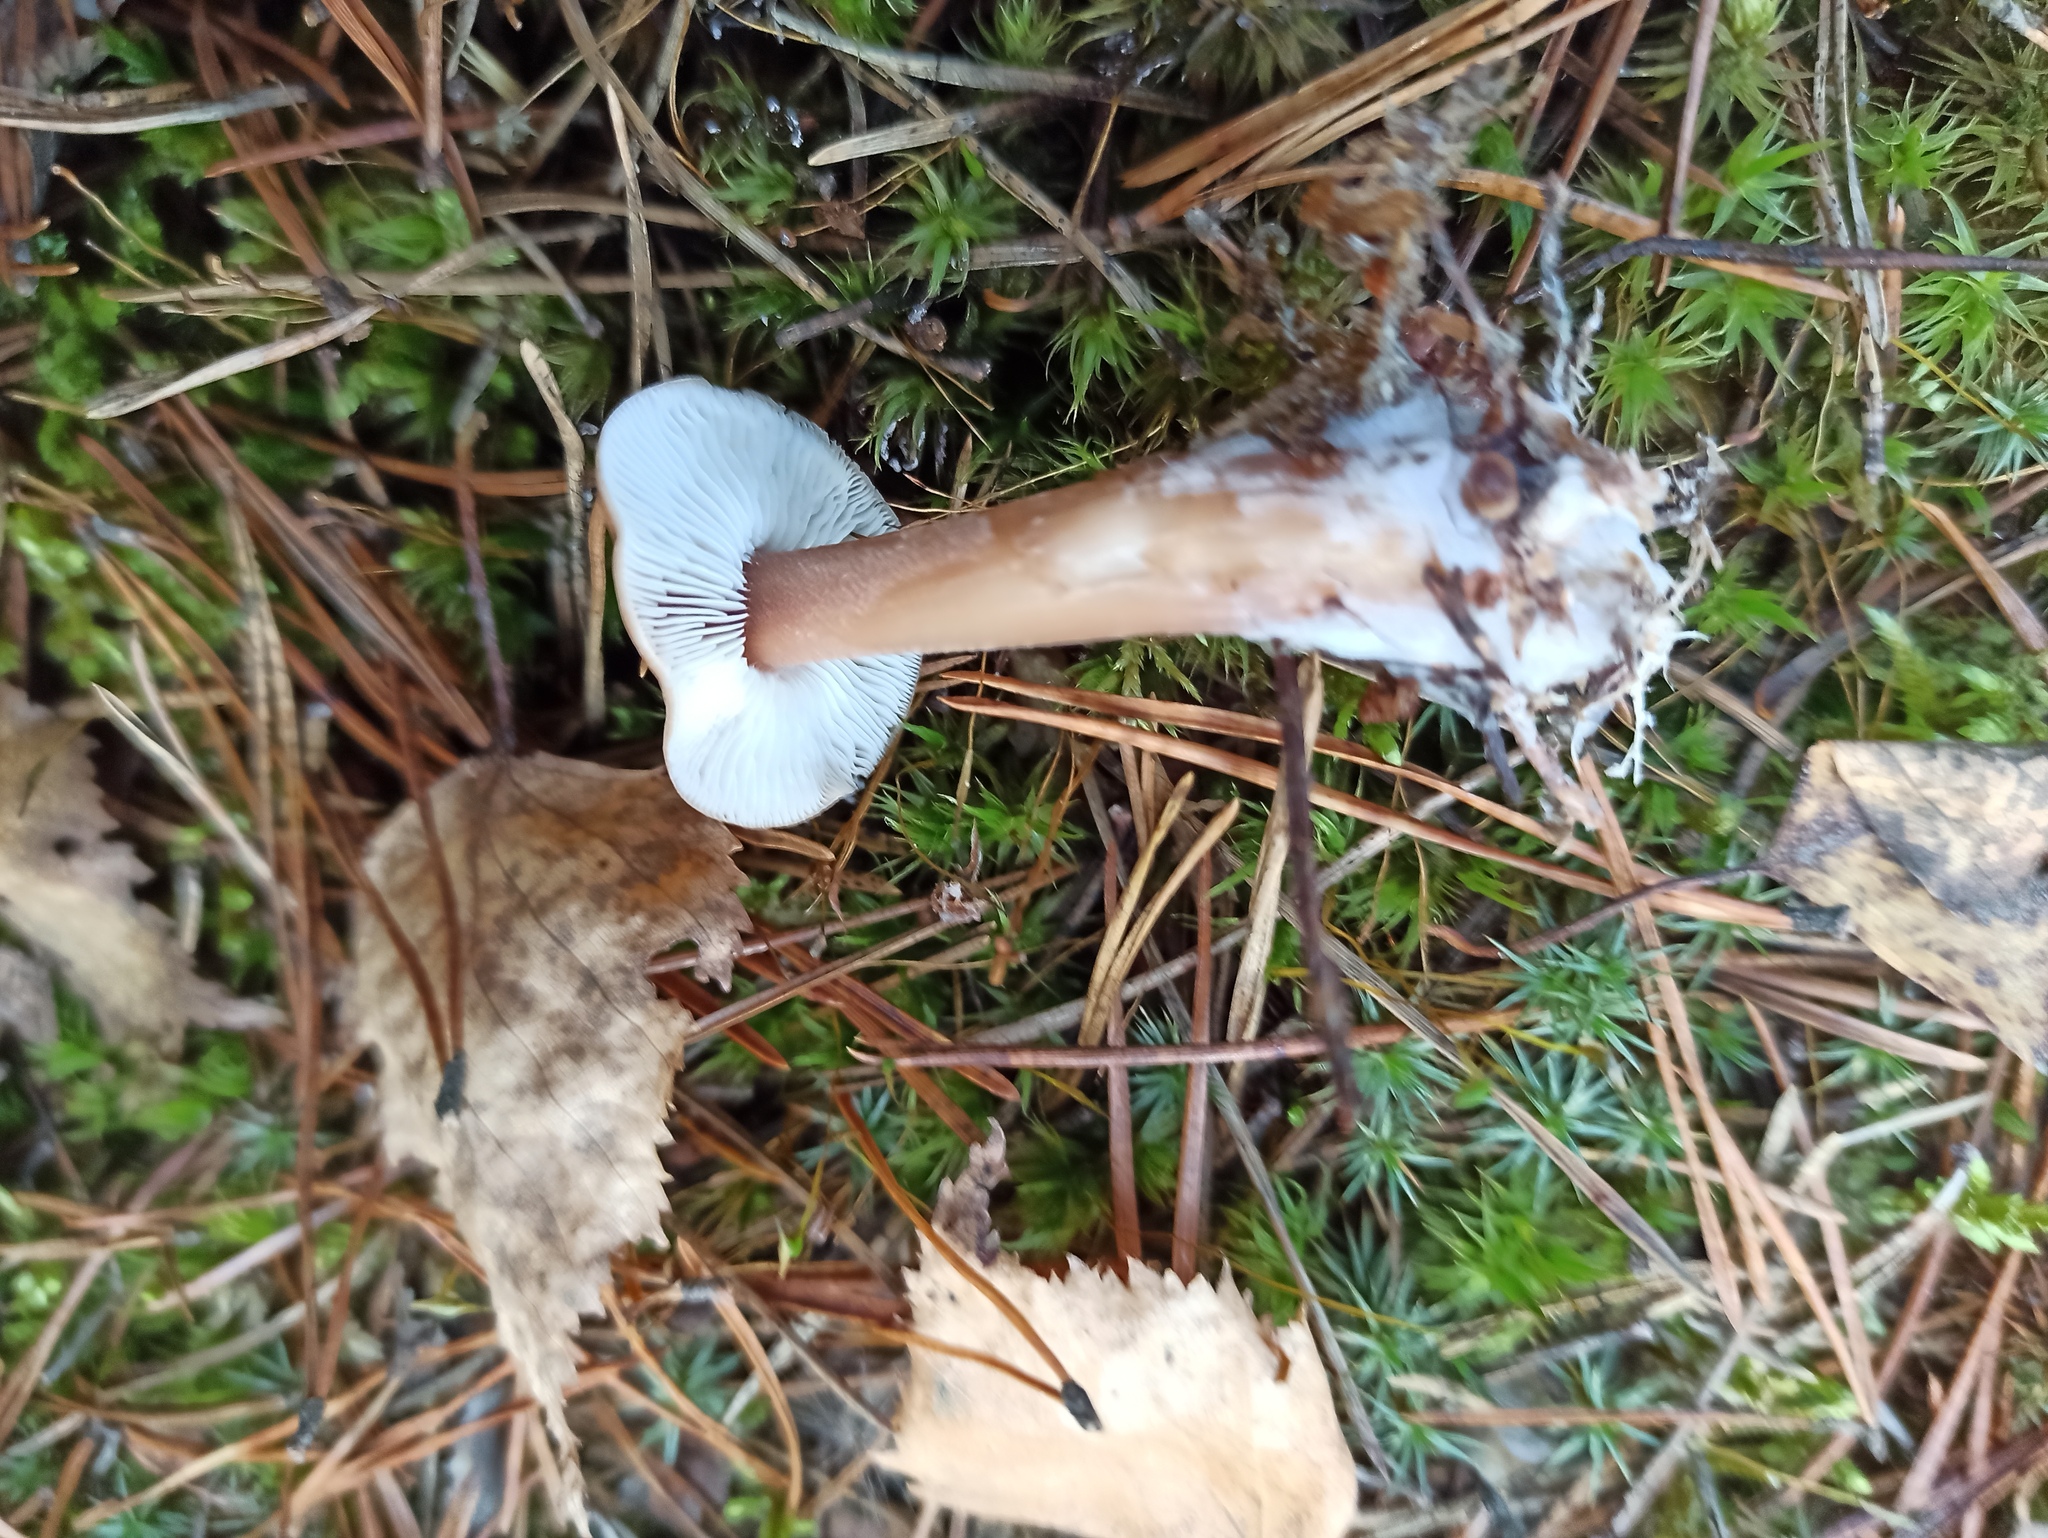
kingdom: Fungi
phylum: Basidiomycota
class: Agaricomycetes
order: Agaricales
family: Omphalotaceae
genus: Rhodocollybia
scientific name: Rhodocollybia butyracea
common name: Butter cap
